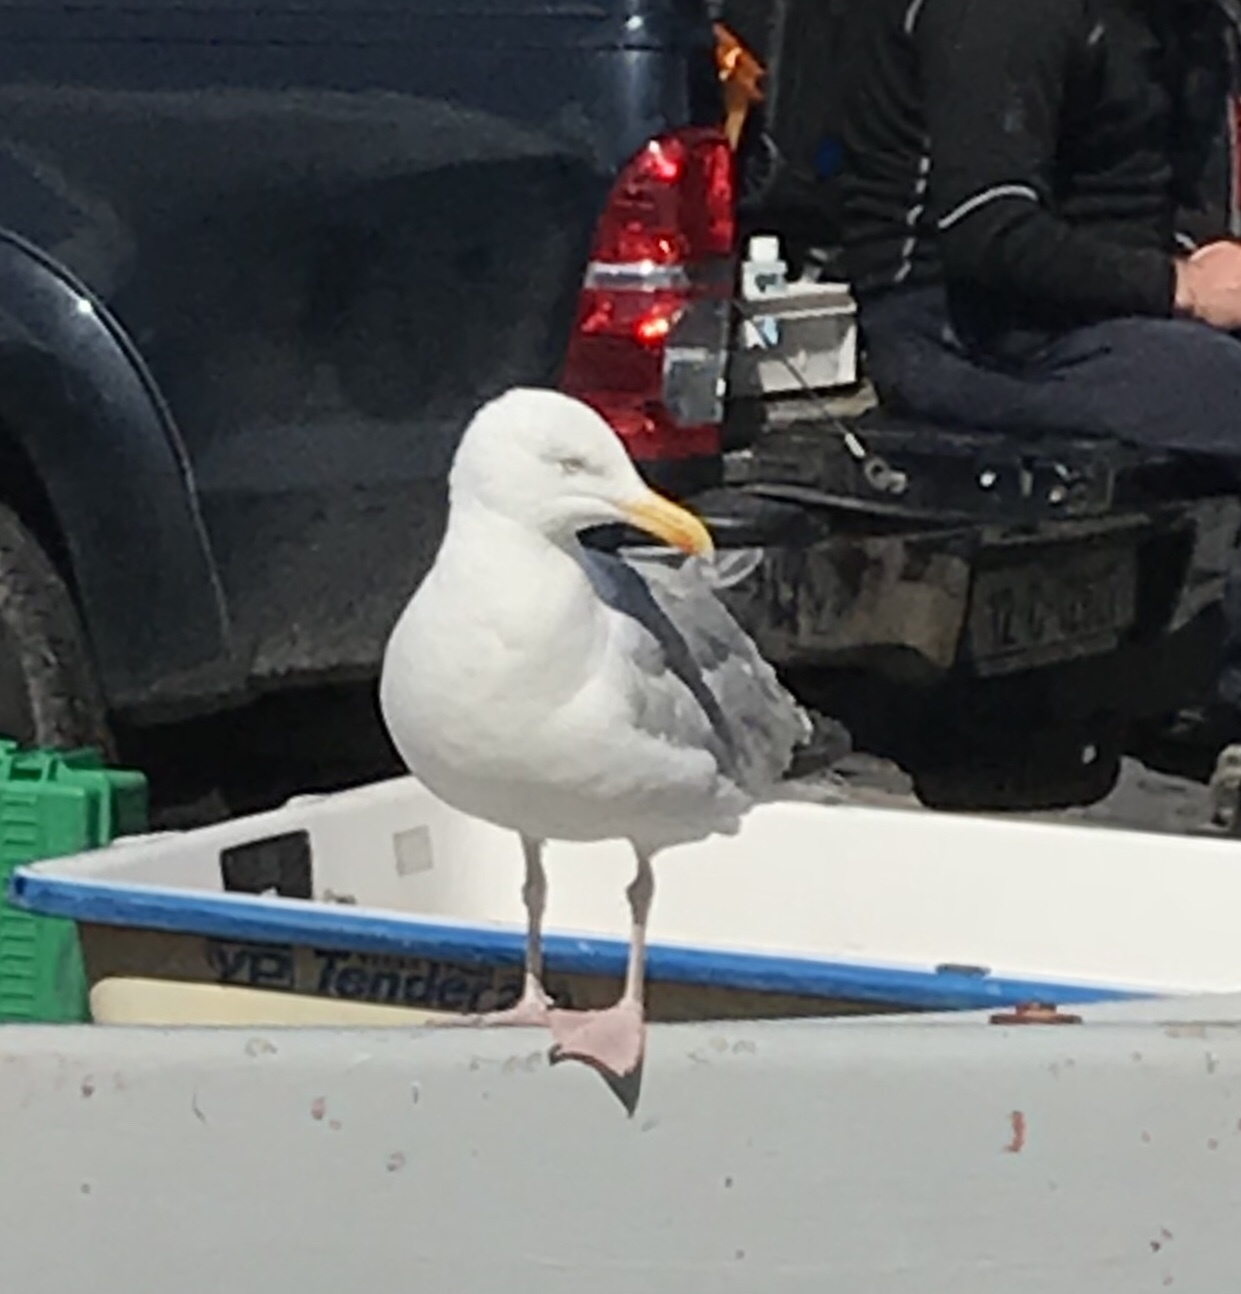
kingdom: Animalia
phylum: Chordata
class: Aves
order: Charadriiformes
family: Laridae
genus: Larus
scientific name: Larus argentatus
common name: Herring gull
